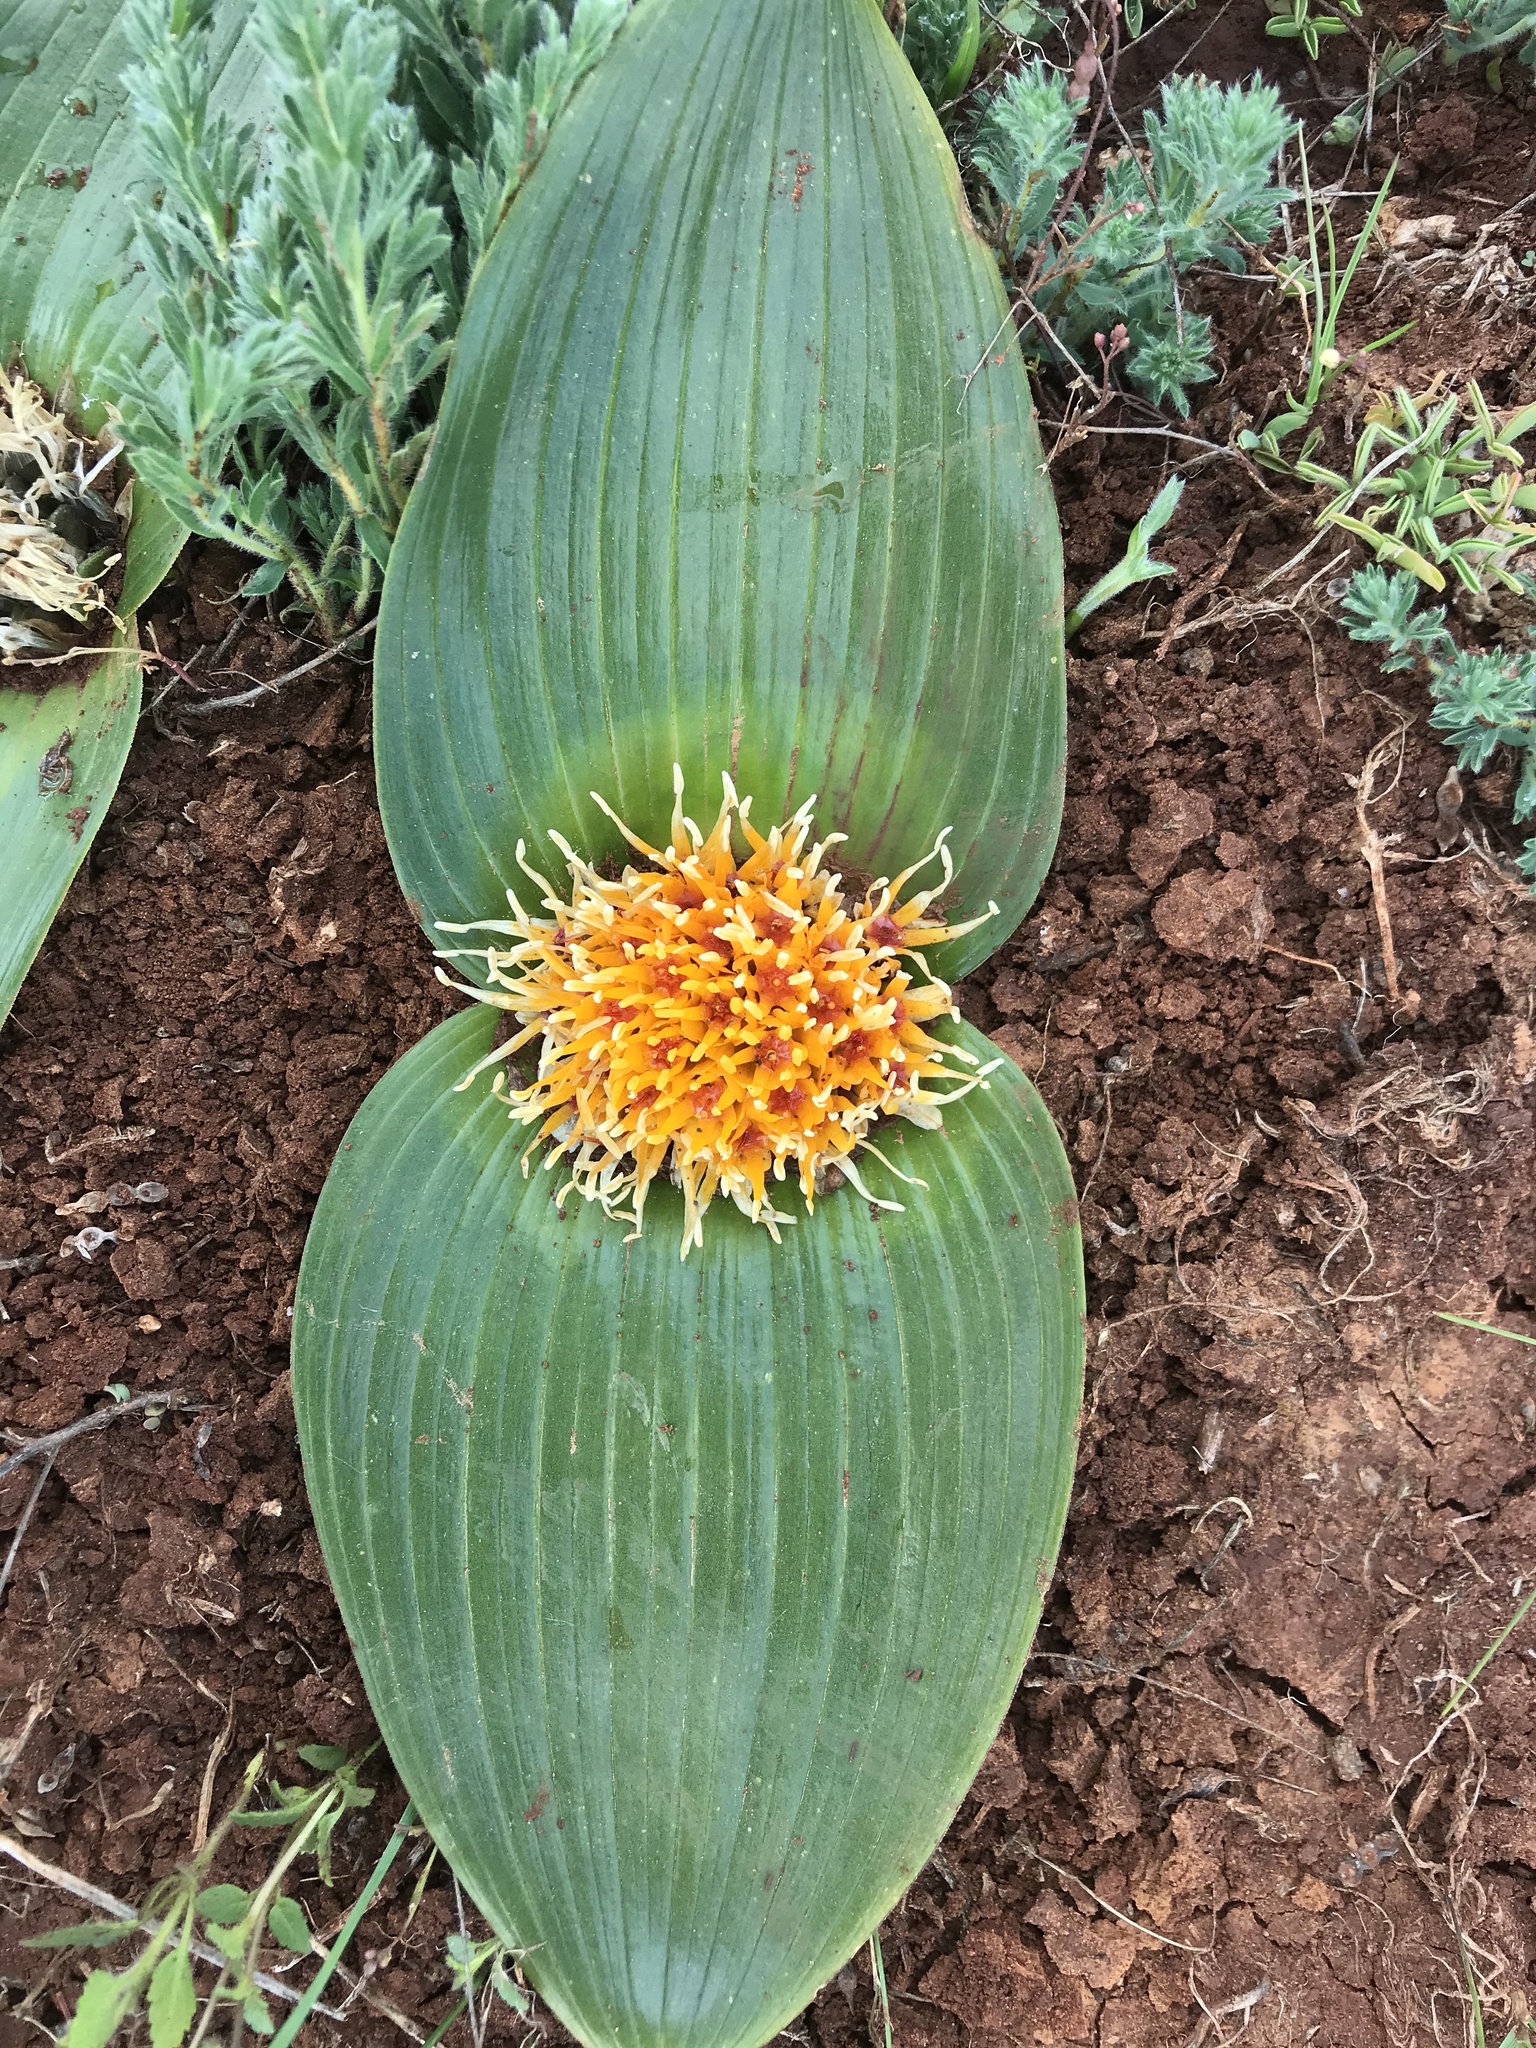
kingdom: Plantae
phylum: Tracheophyta
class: Liliopsida
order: Asparagales
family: Asparagaceae
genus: Daubenya
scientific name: Daubenya capensis
